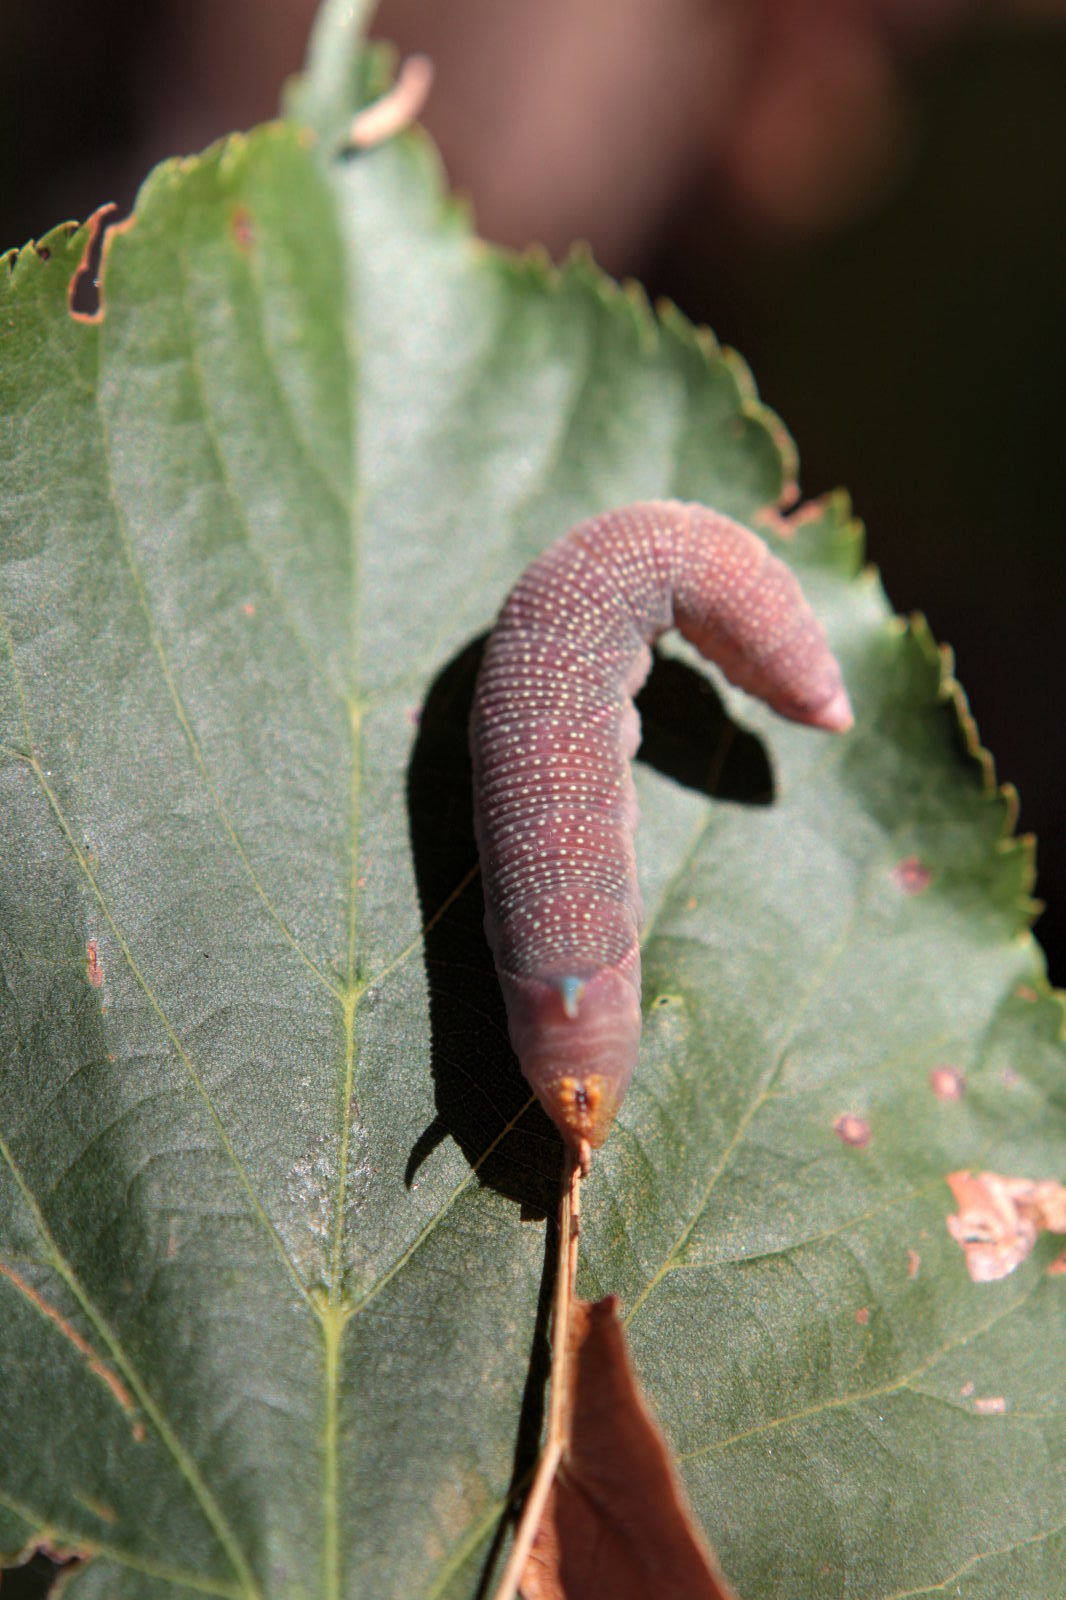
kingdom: Animalia
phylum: Arthropoda
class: Insecta
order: Lepidoptera
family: Sphingidae
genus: Mimas
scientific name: Mimas tiliae
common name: Lime hawk-moth
